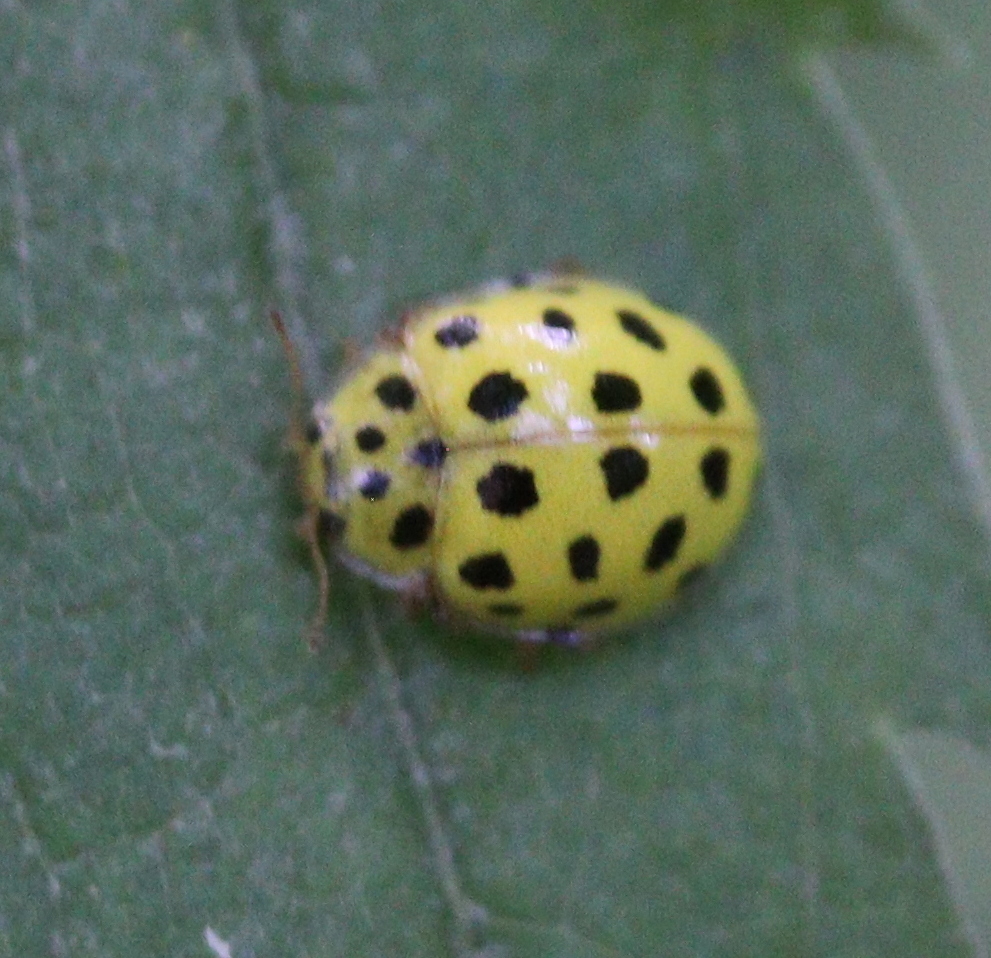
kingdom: Animalia
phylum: Arthropoda
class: Insecta
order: Coleoptera
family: Coccinellidae
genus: Psyllobora
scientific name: Psyllobora vigintiduopunctata
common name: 22-spot ladybird
